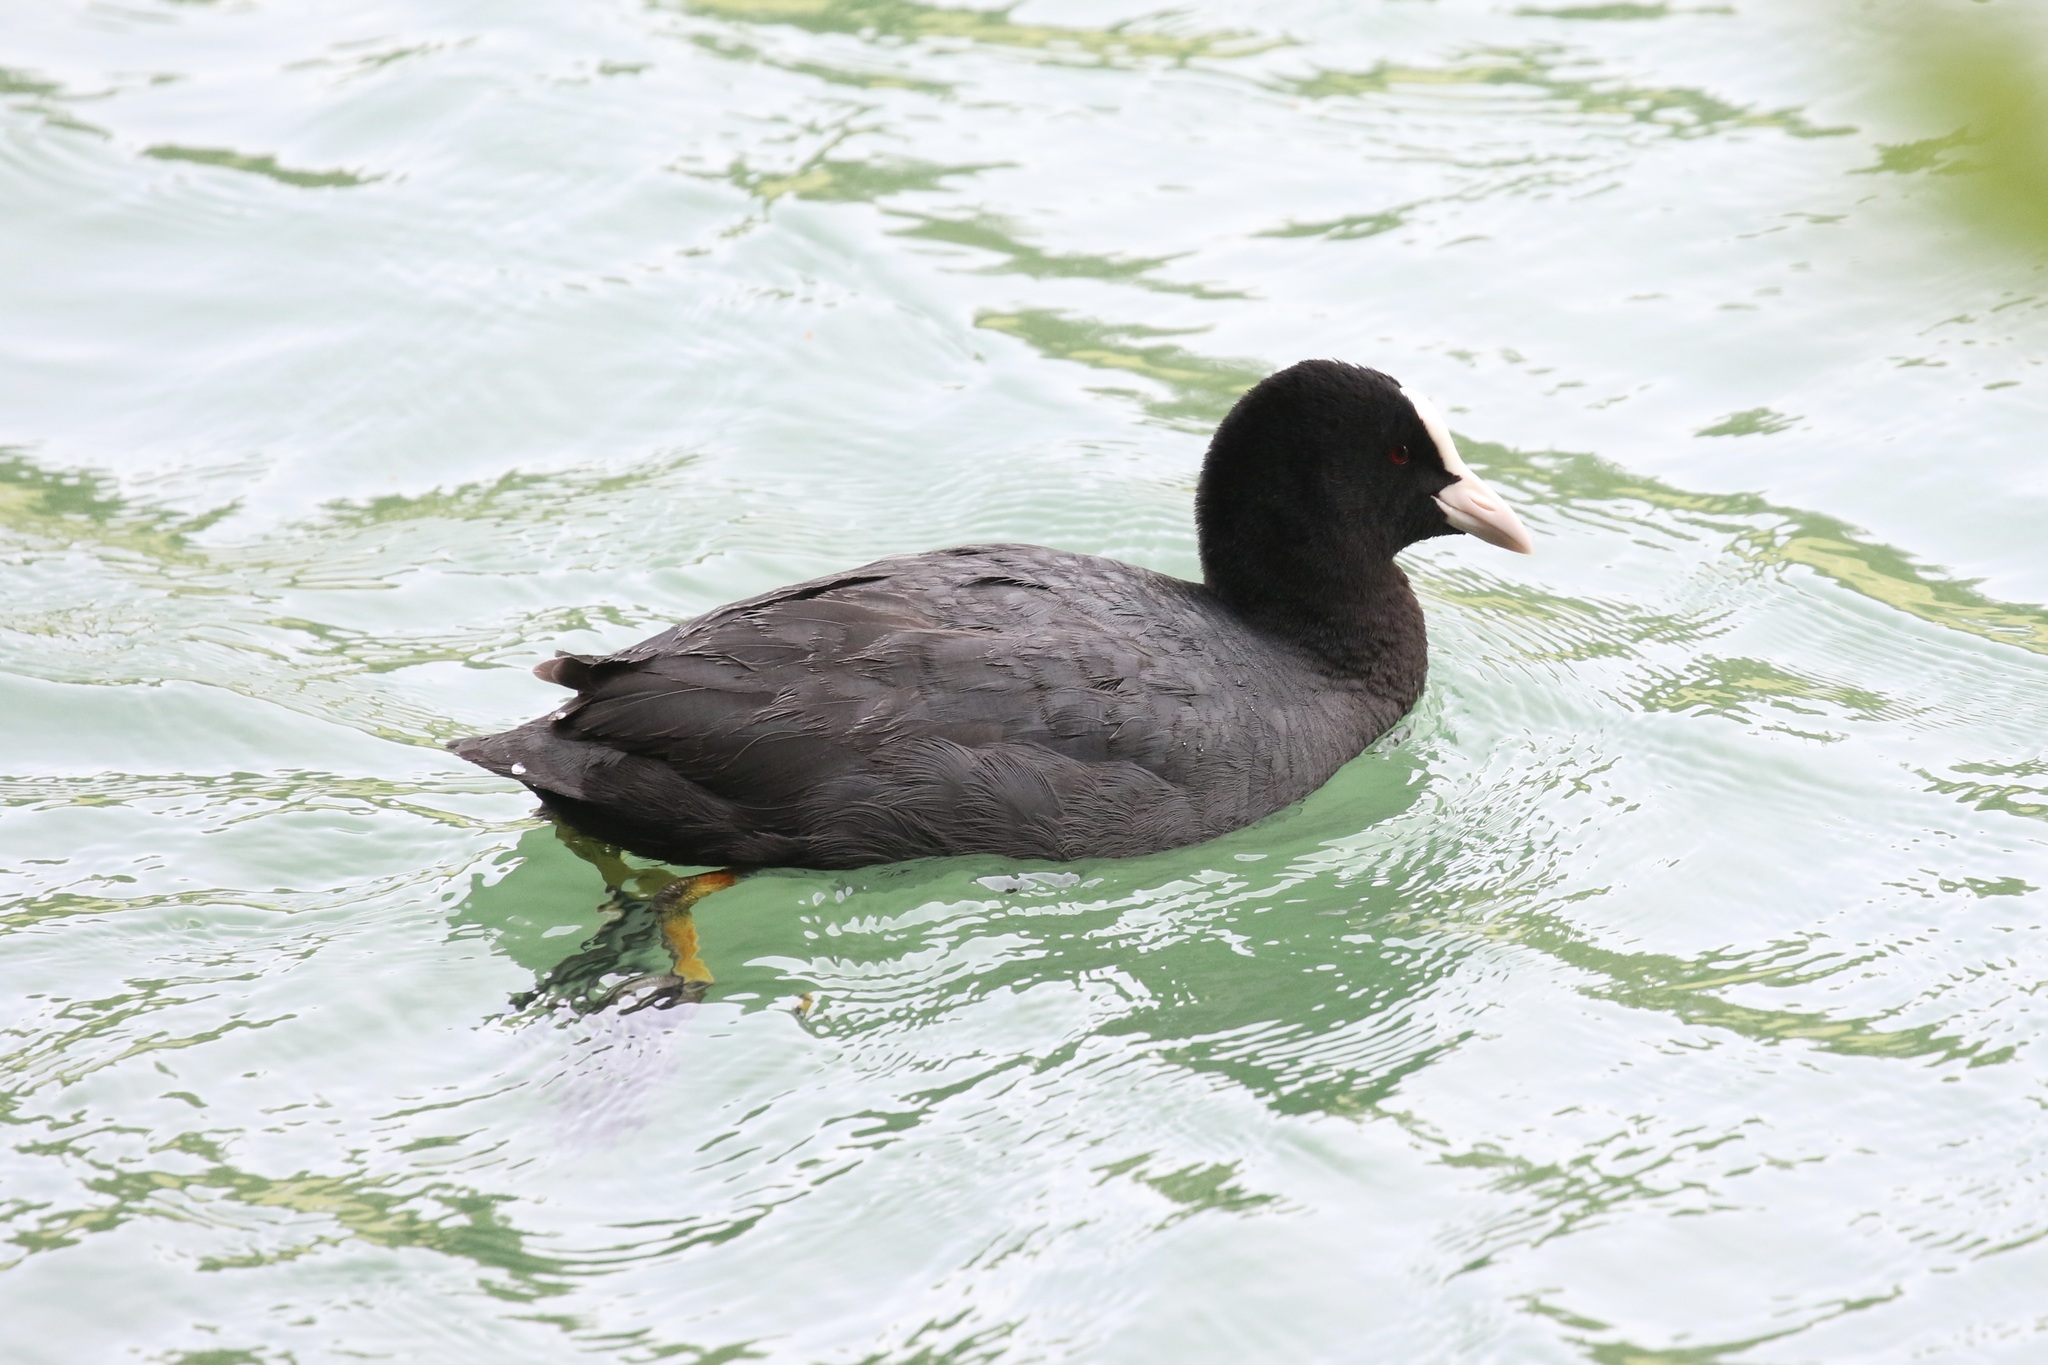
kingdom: Animalia
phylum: Chordata
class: Aves
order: Gruiformes
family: Rallidae
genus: Fulica
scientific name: Fulica atra
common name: Eurasian coot
